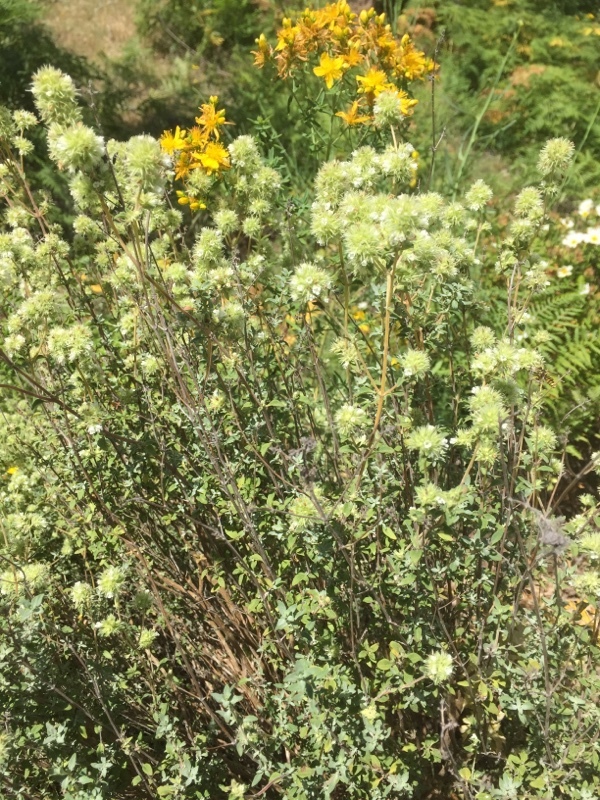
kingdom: Plantae
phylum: Tracheophyta
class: Magnoliopsida
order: Lamiales
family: Lamiaceae
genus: Thymus
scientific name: Thymus mastichina
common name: Mastic thyme
